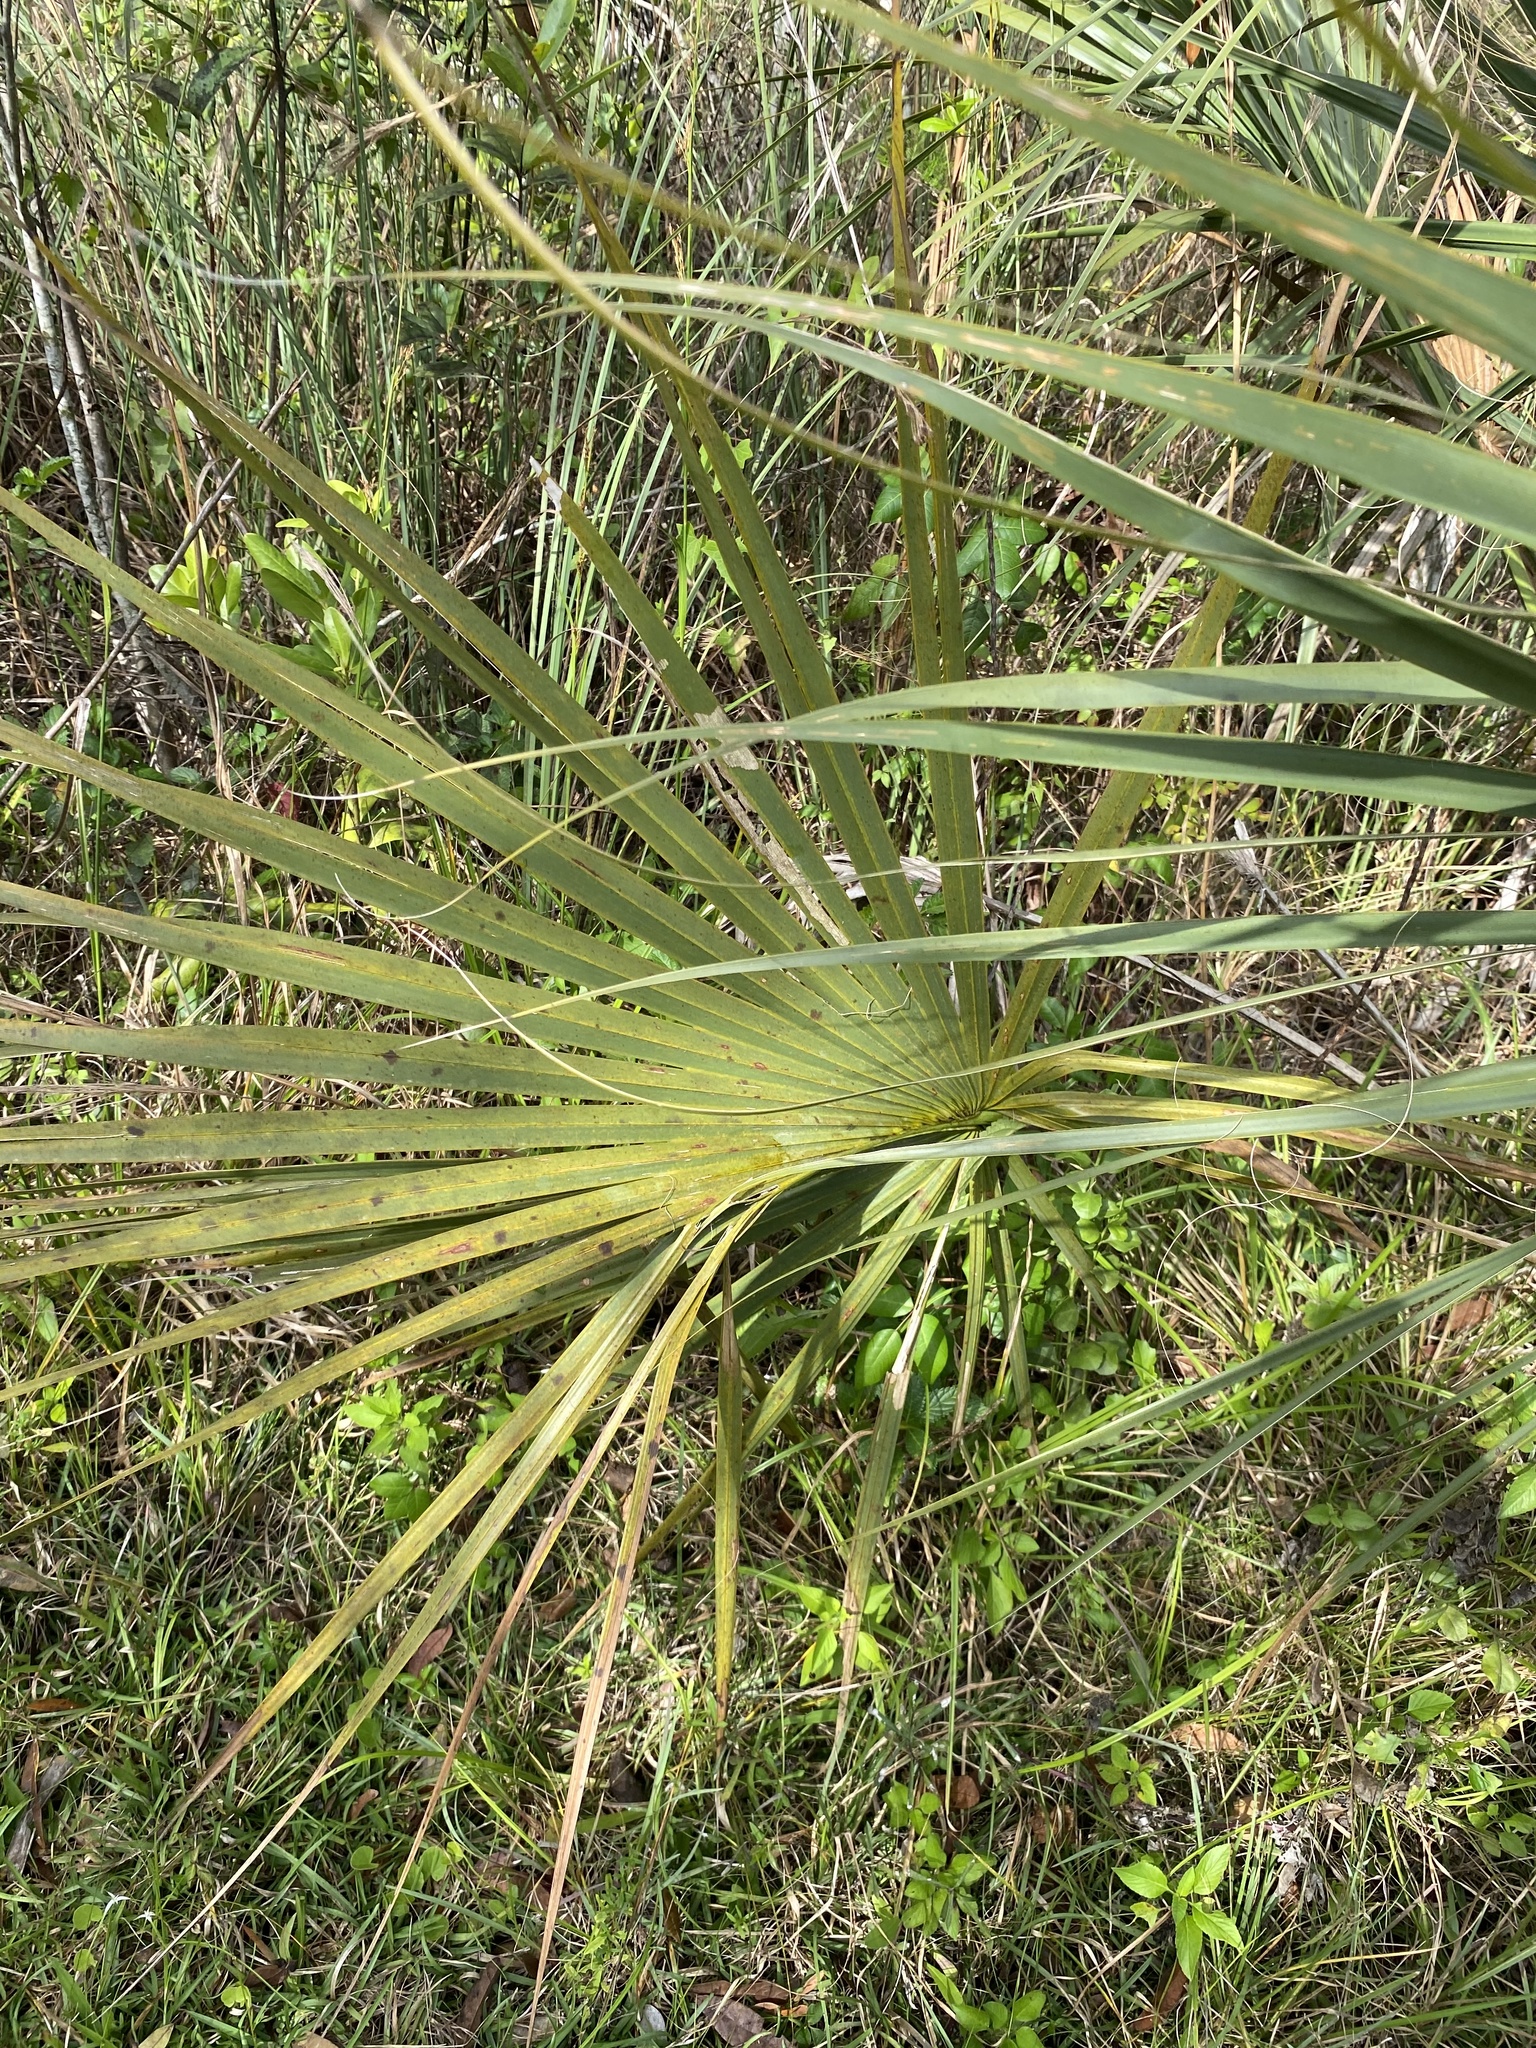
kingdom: Plantae
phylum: Tracheophyta
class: Liliopsida
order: Arecales
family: Arecaceae
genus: Sabal
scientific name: Sabal palmetto
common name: Blue palmetto
